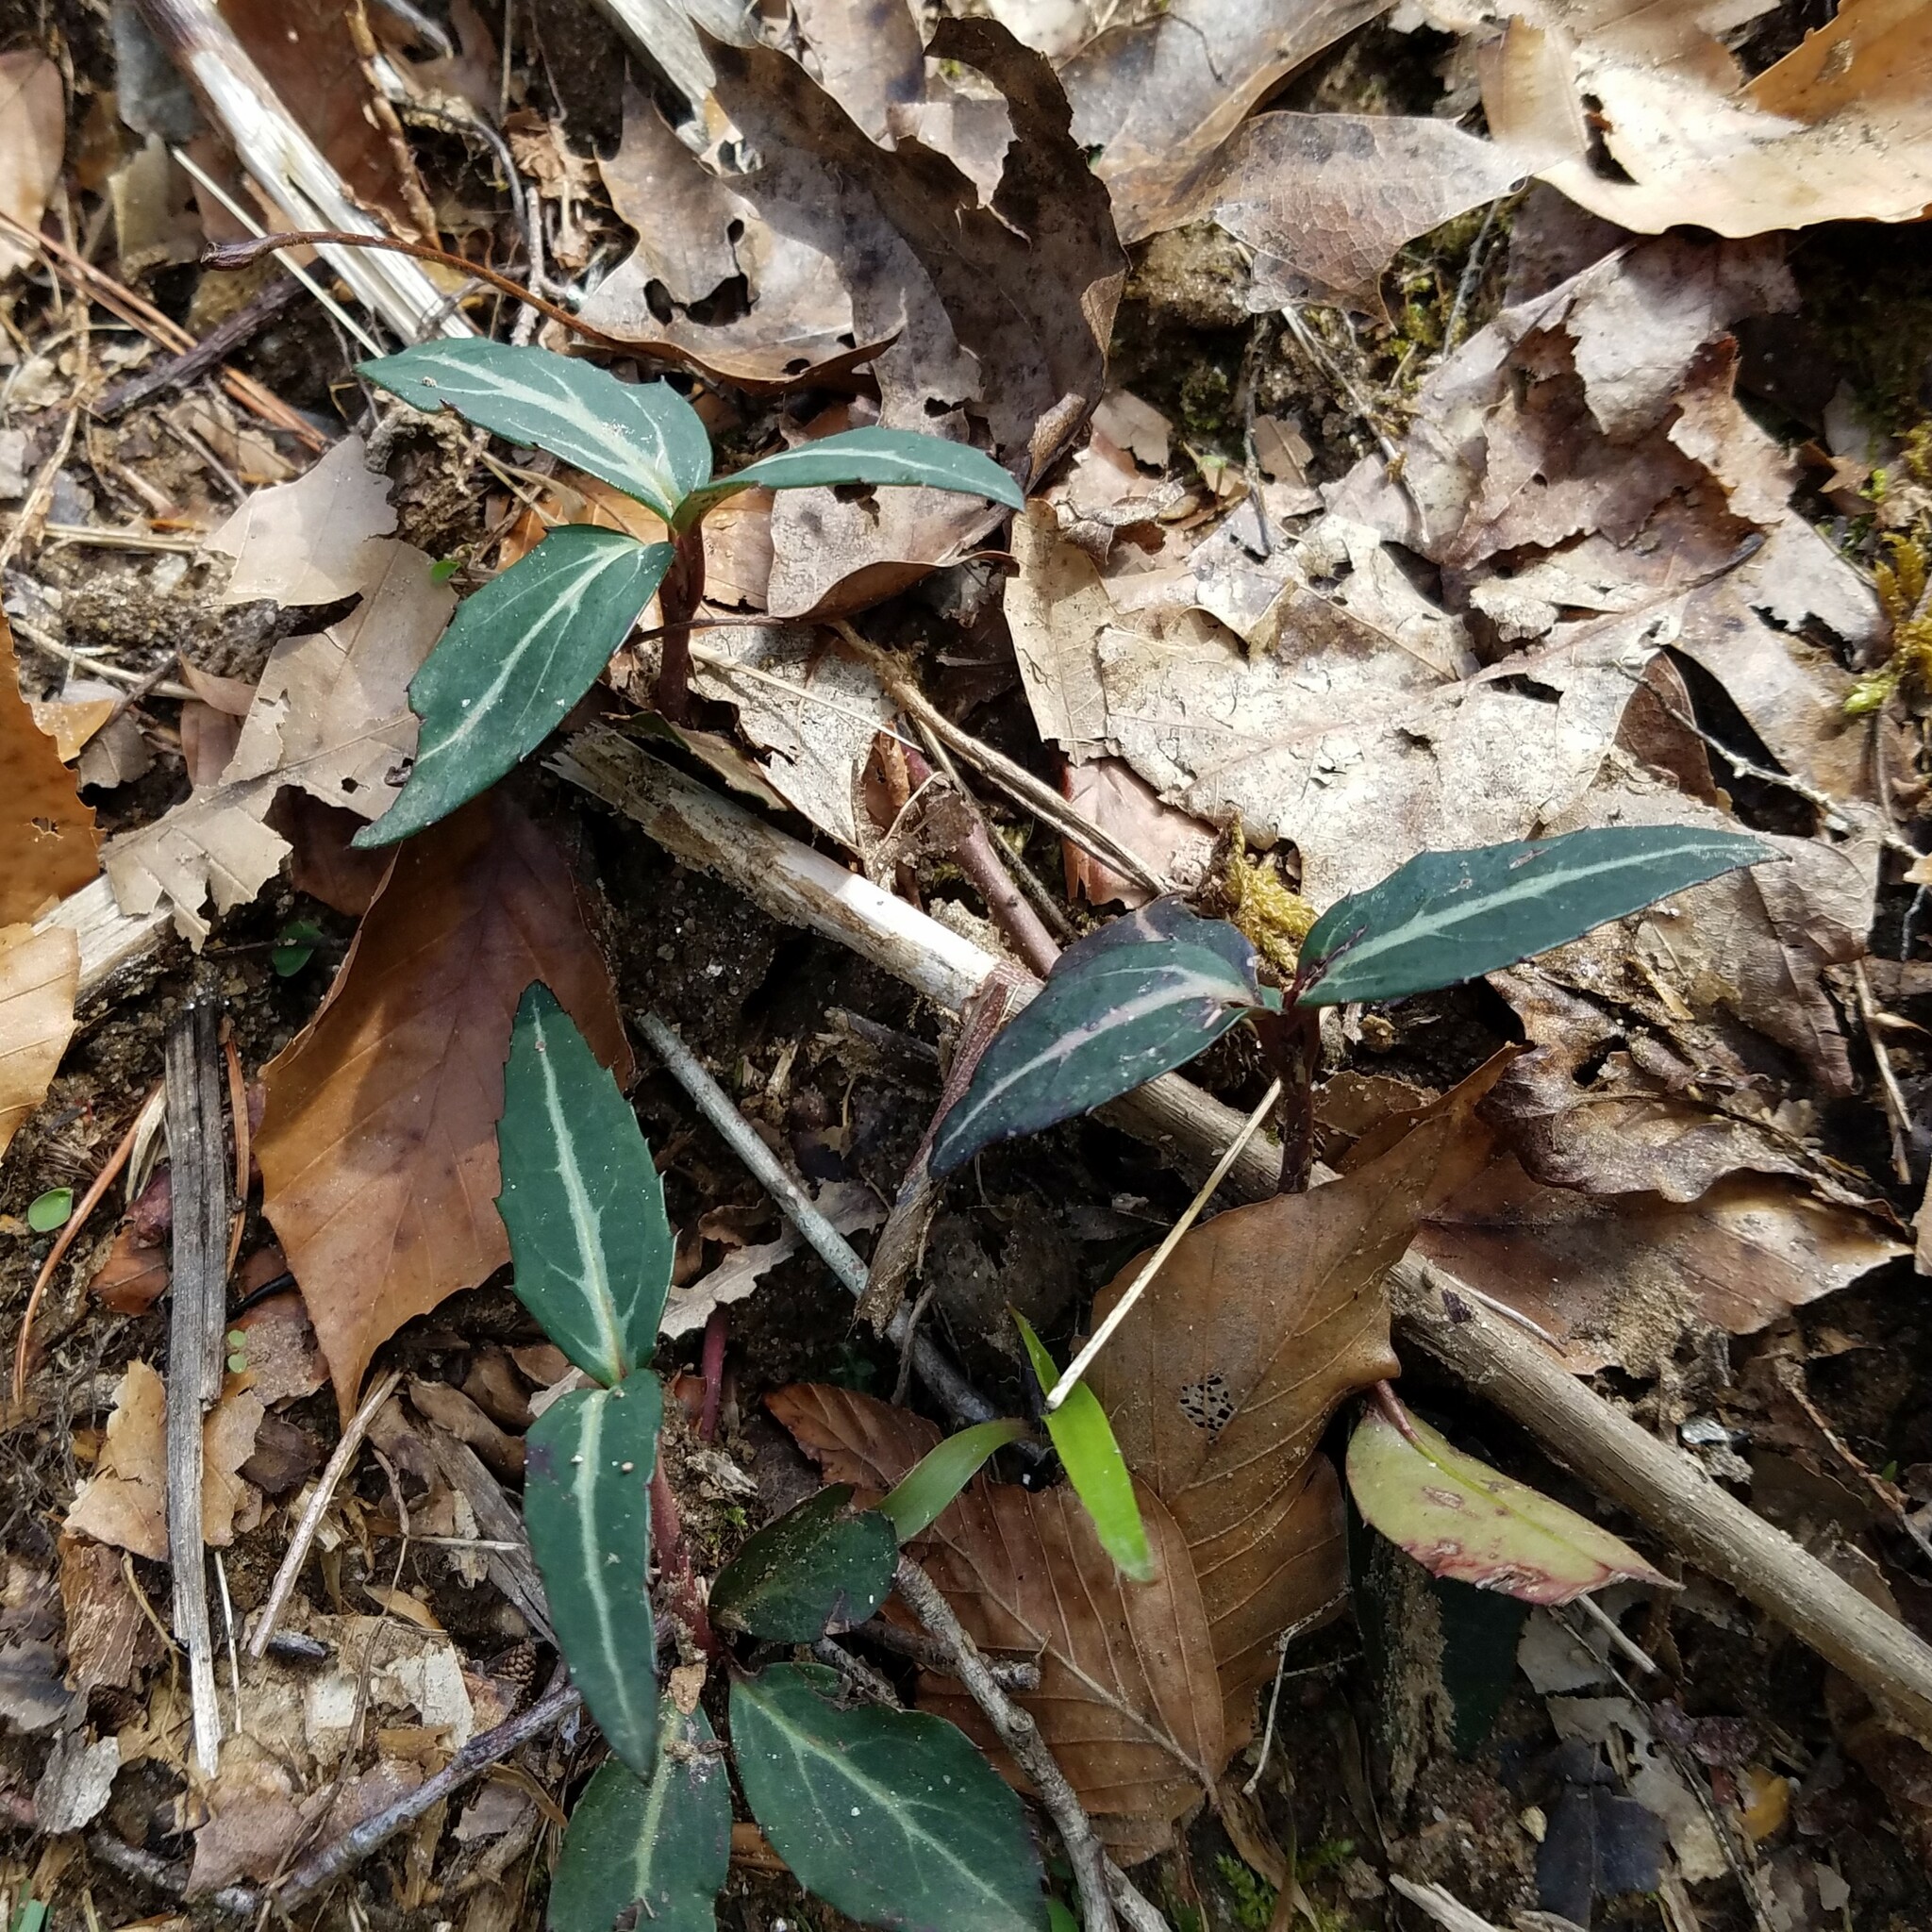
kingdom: Plantae
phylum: Tracheophyta
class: Magnoliopsida
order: Ericales
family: Ericaceae
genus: Chimaphila
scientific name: Chimaphila maculata
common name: Spotted pipsissewa
